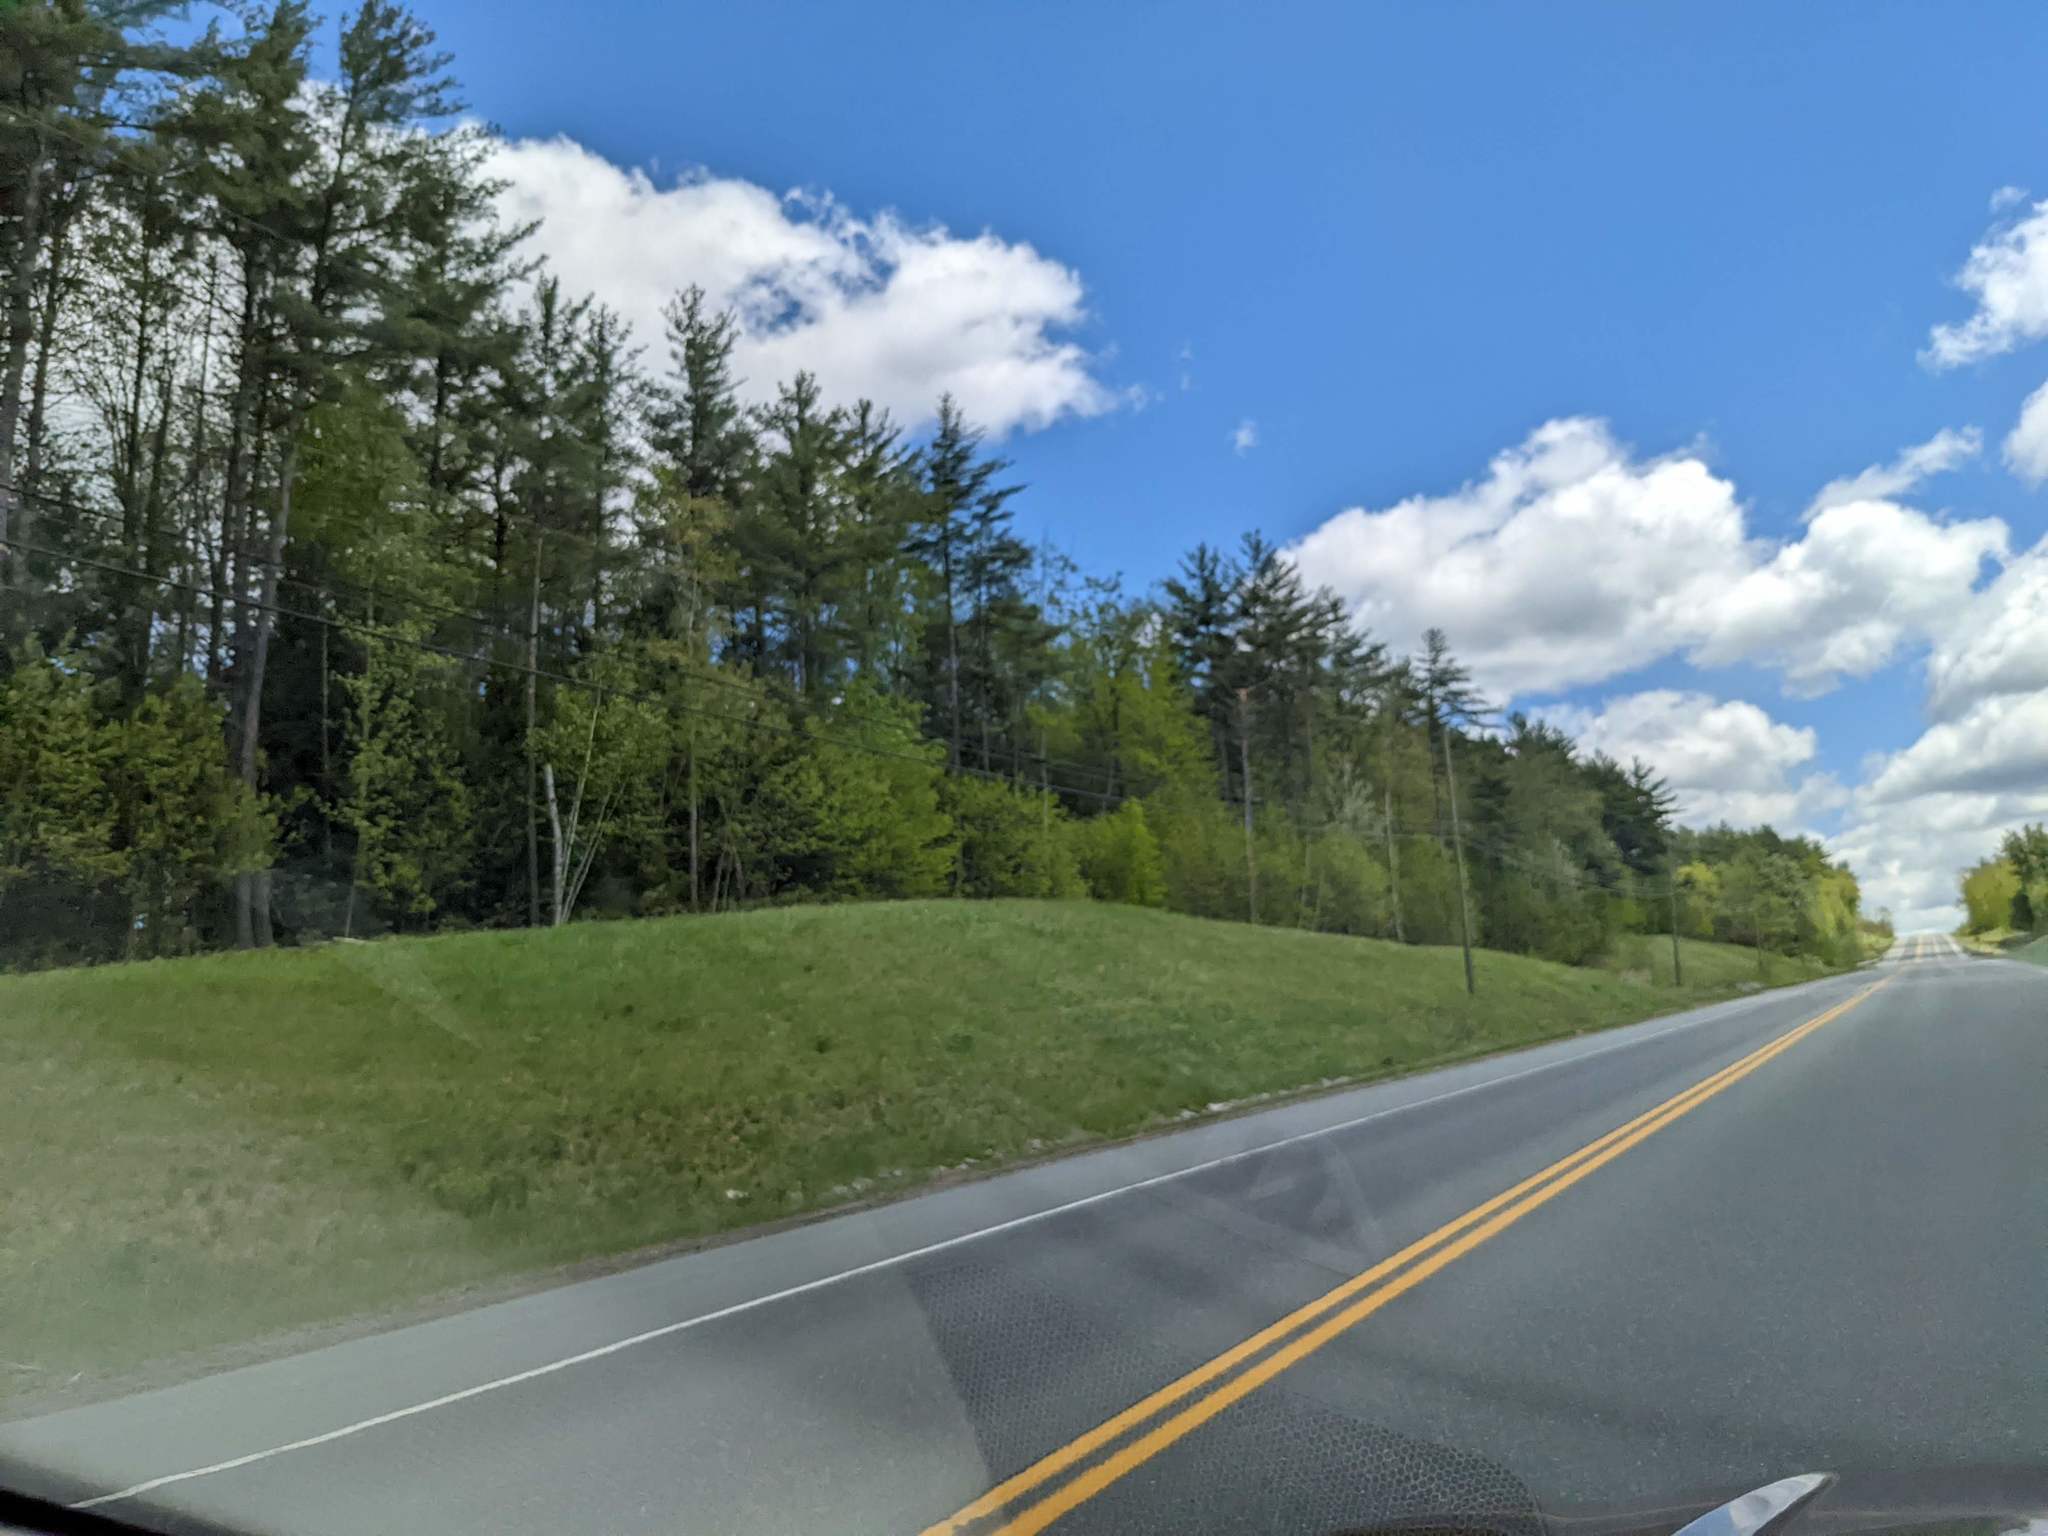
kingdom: Plantae
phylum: Tracheophyta
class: Pinopsida
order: Pinales
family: Pinaceae
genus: Pinus
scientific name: Pinus strobus
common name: Weymouth pine
